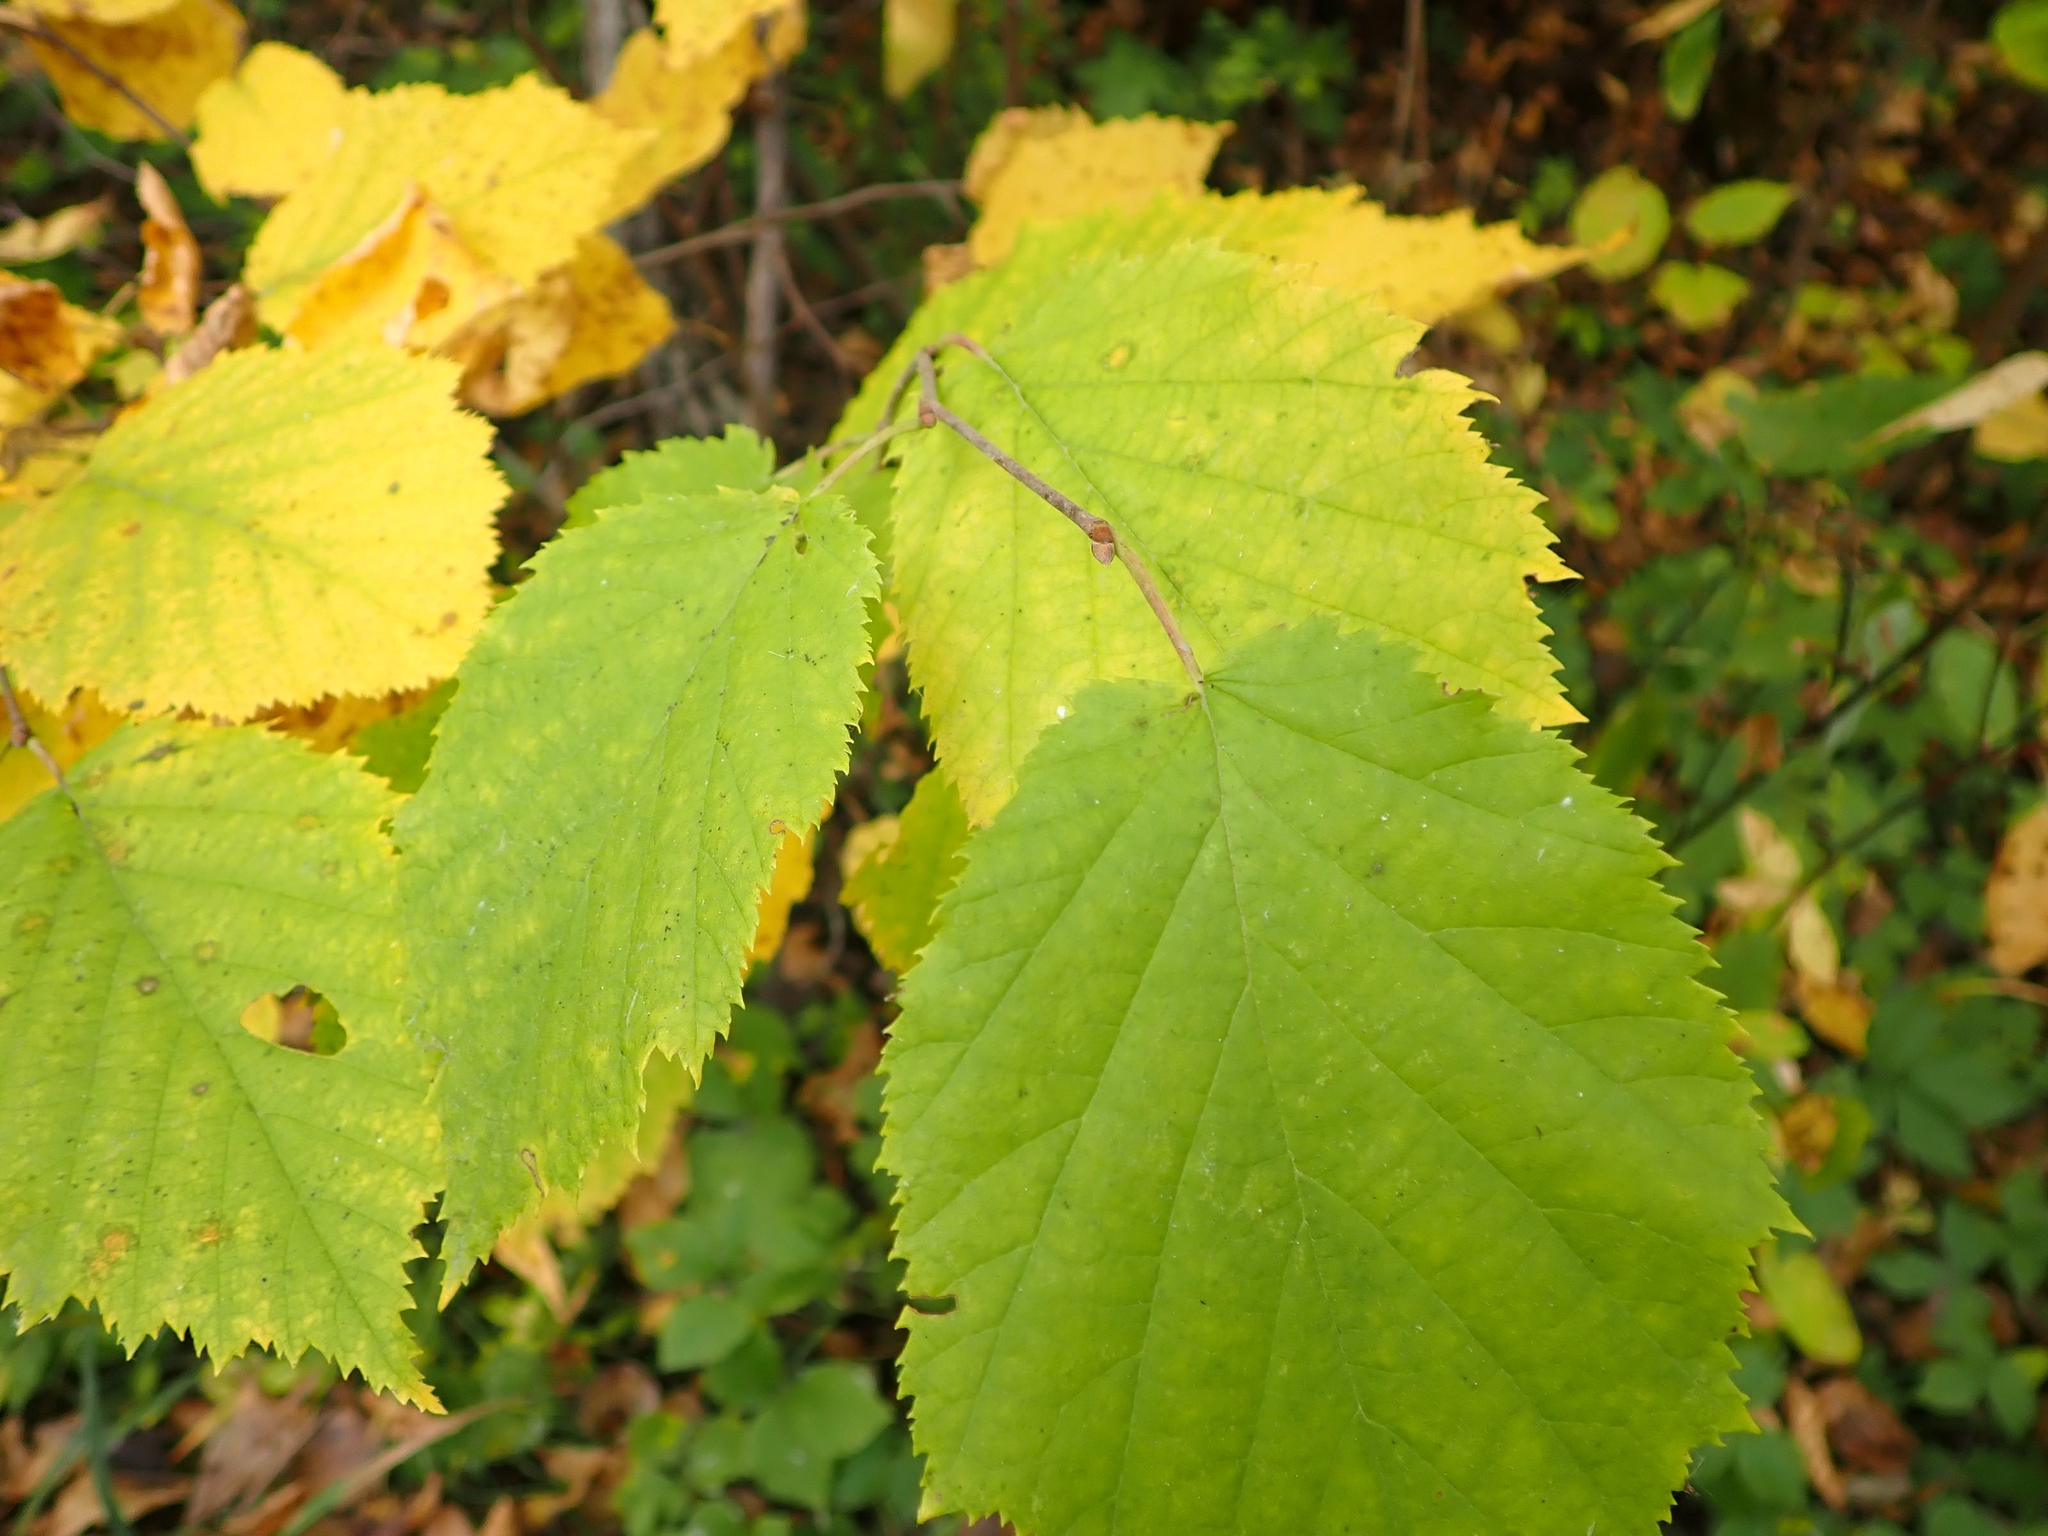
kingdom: Plantae
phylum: Tracheophyta
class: Magnoliopsida
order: Fagales
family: Betulaceae
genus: Corylus
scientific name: Corylus cornuta
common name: Beaked hazel
